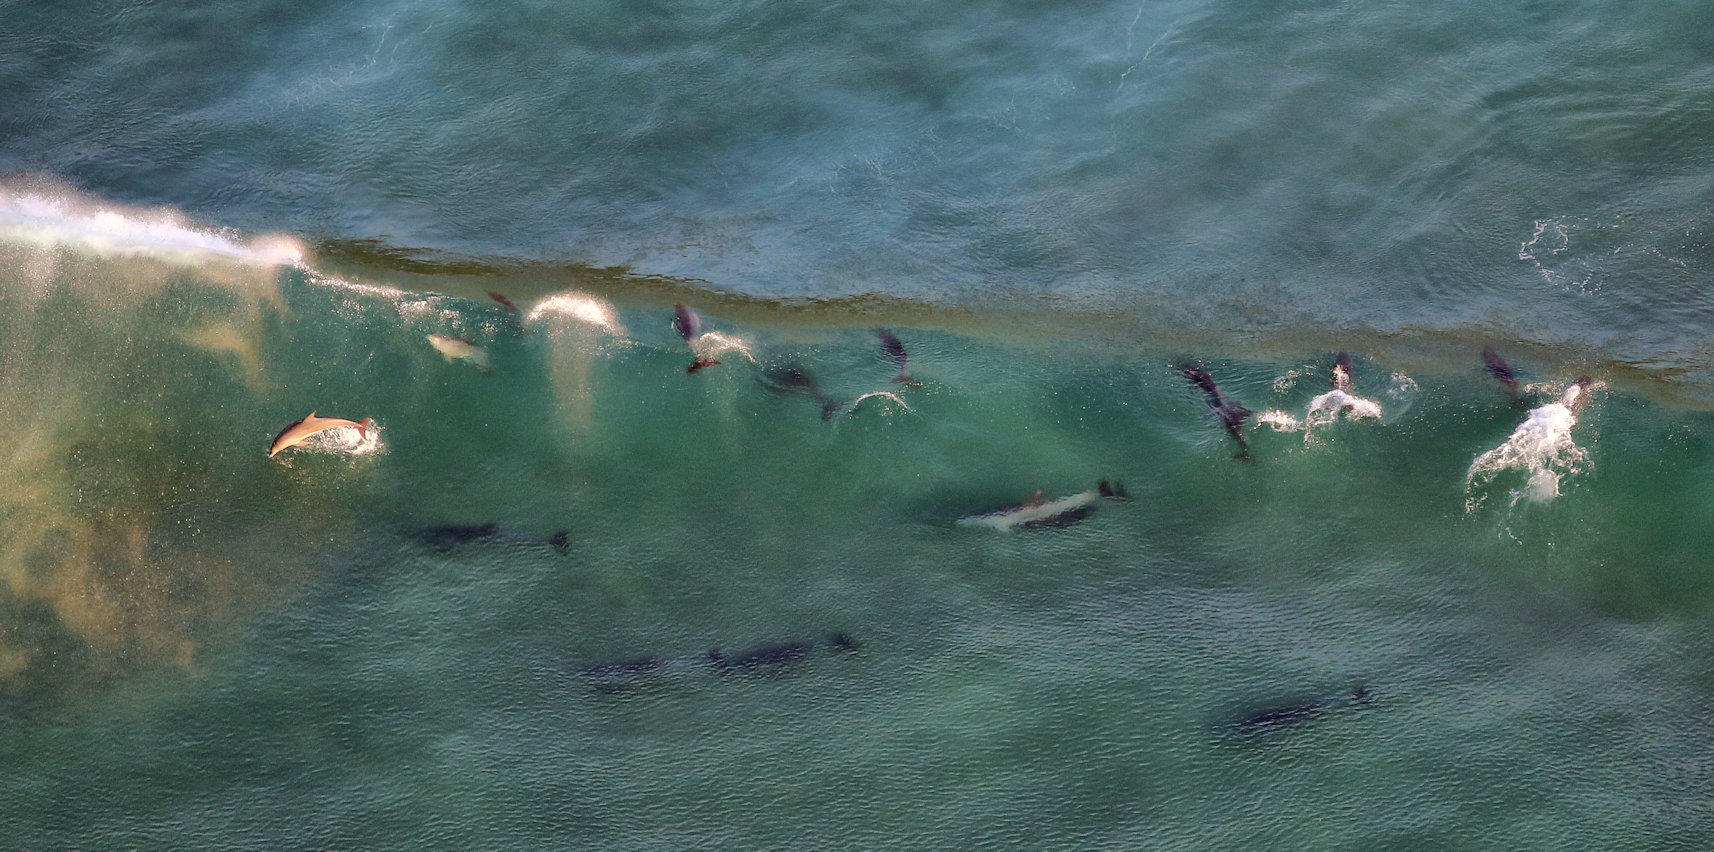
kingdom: Animalia
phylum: Chordata
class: Mammalia
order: Cetacea
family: Delphinidae
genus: Tursiops
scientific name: Tursiops aduncus
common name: Indo-pacific bottlenose dolphin
